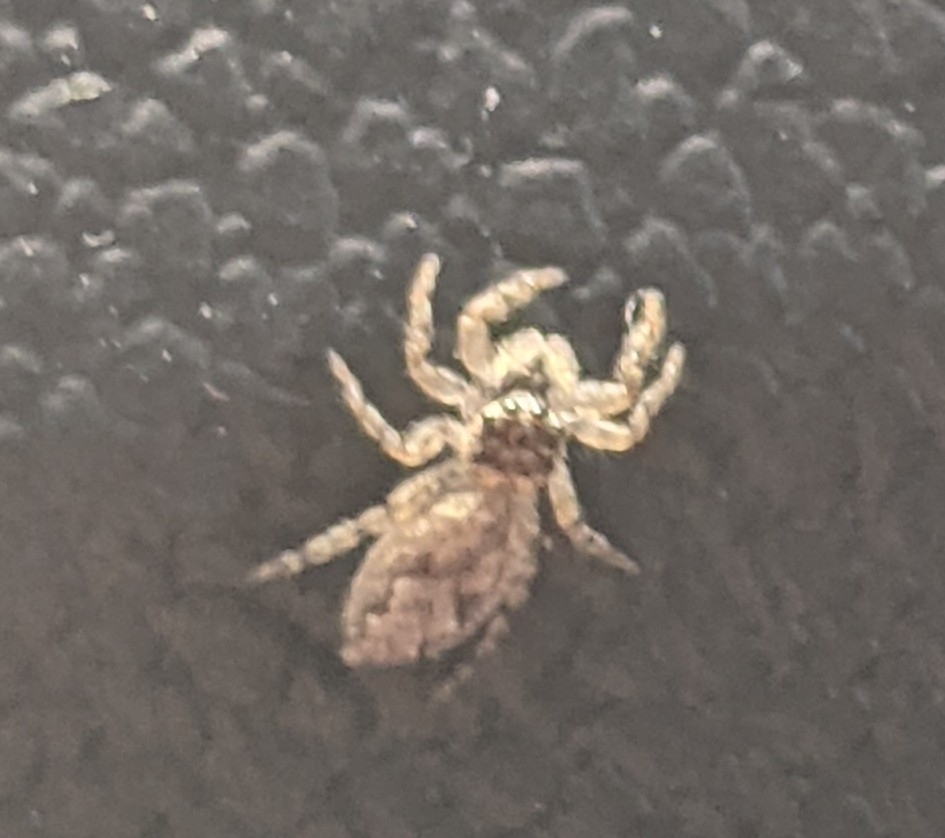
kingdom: Animalia
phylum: Arthropoda
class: Arachnida
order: Araneae
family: Salticidae
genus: Platycryptus
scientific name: Platycryptus undatus
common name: Tan jumping spider
